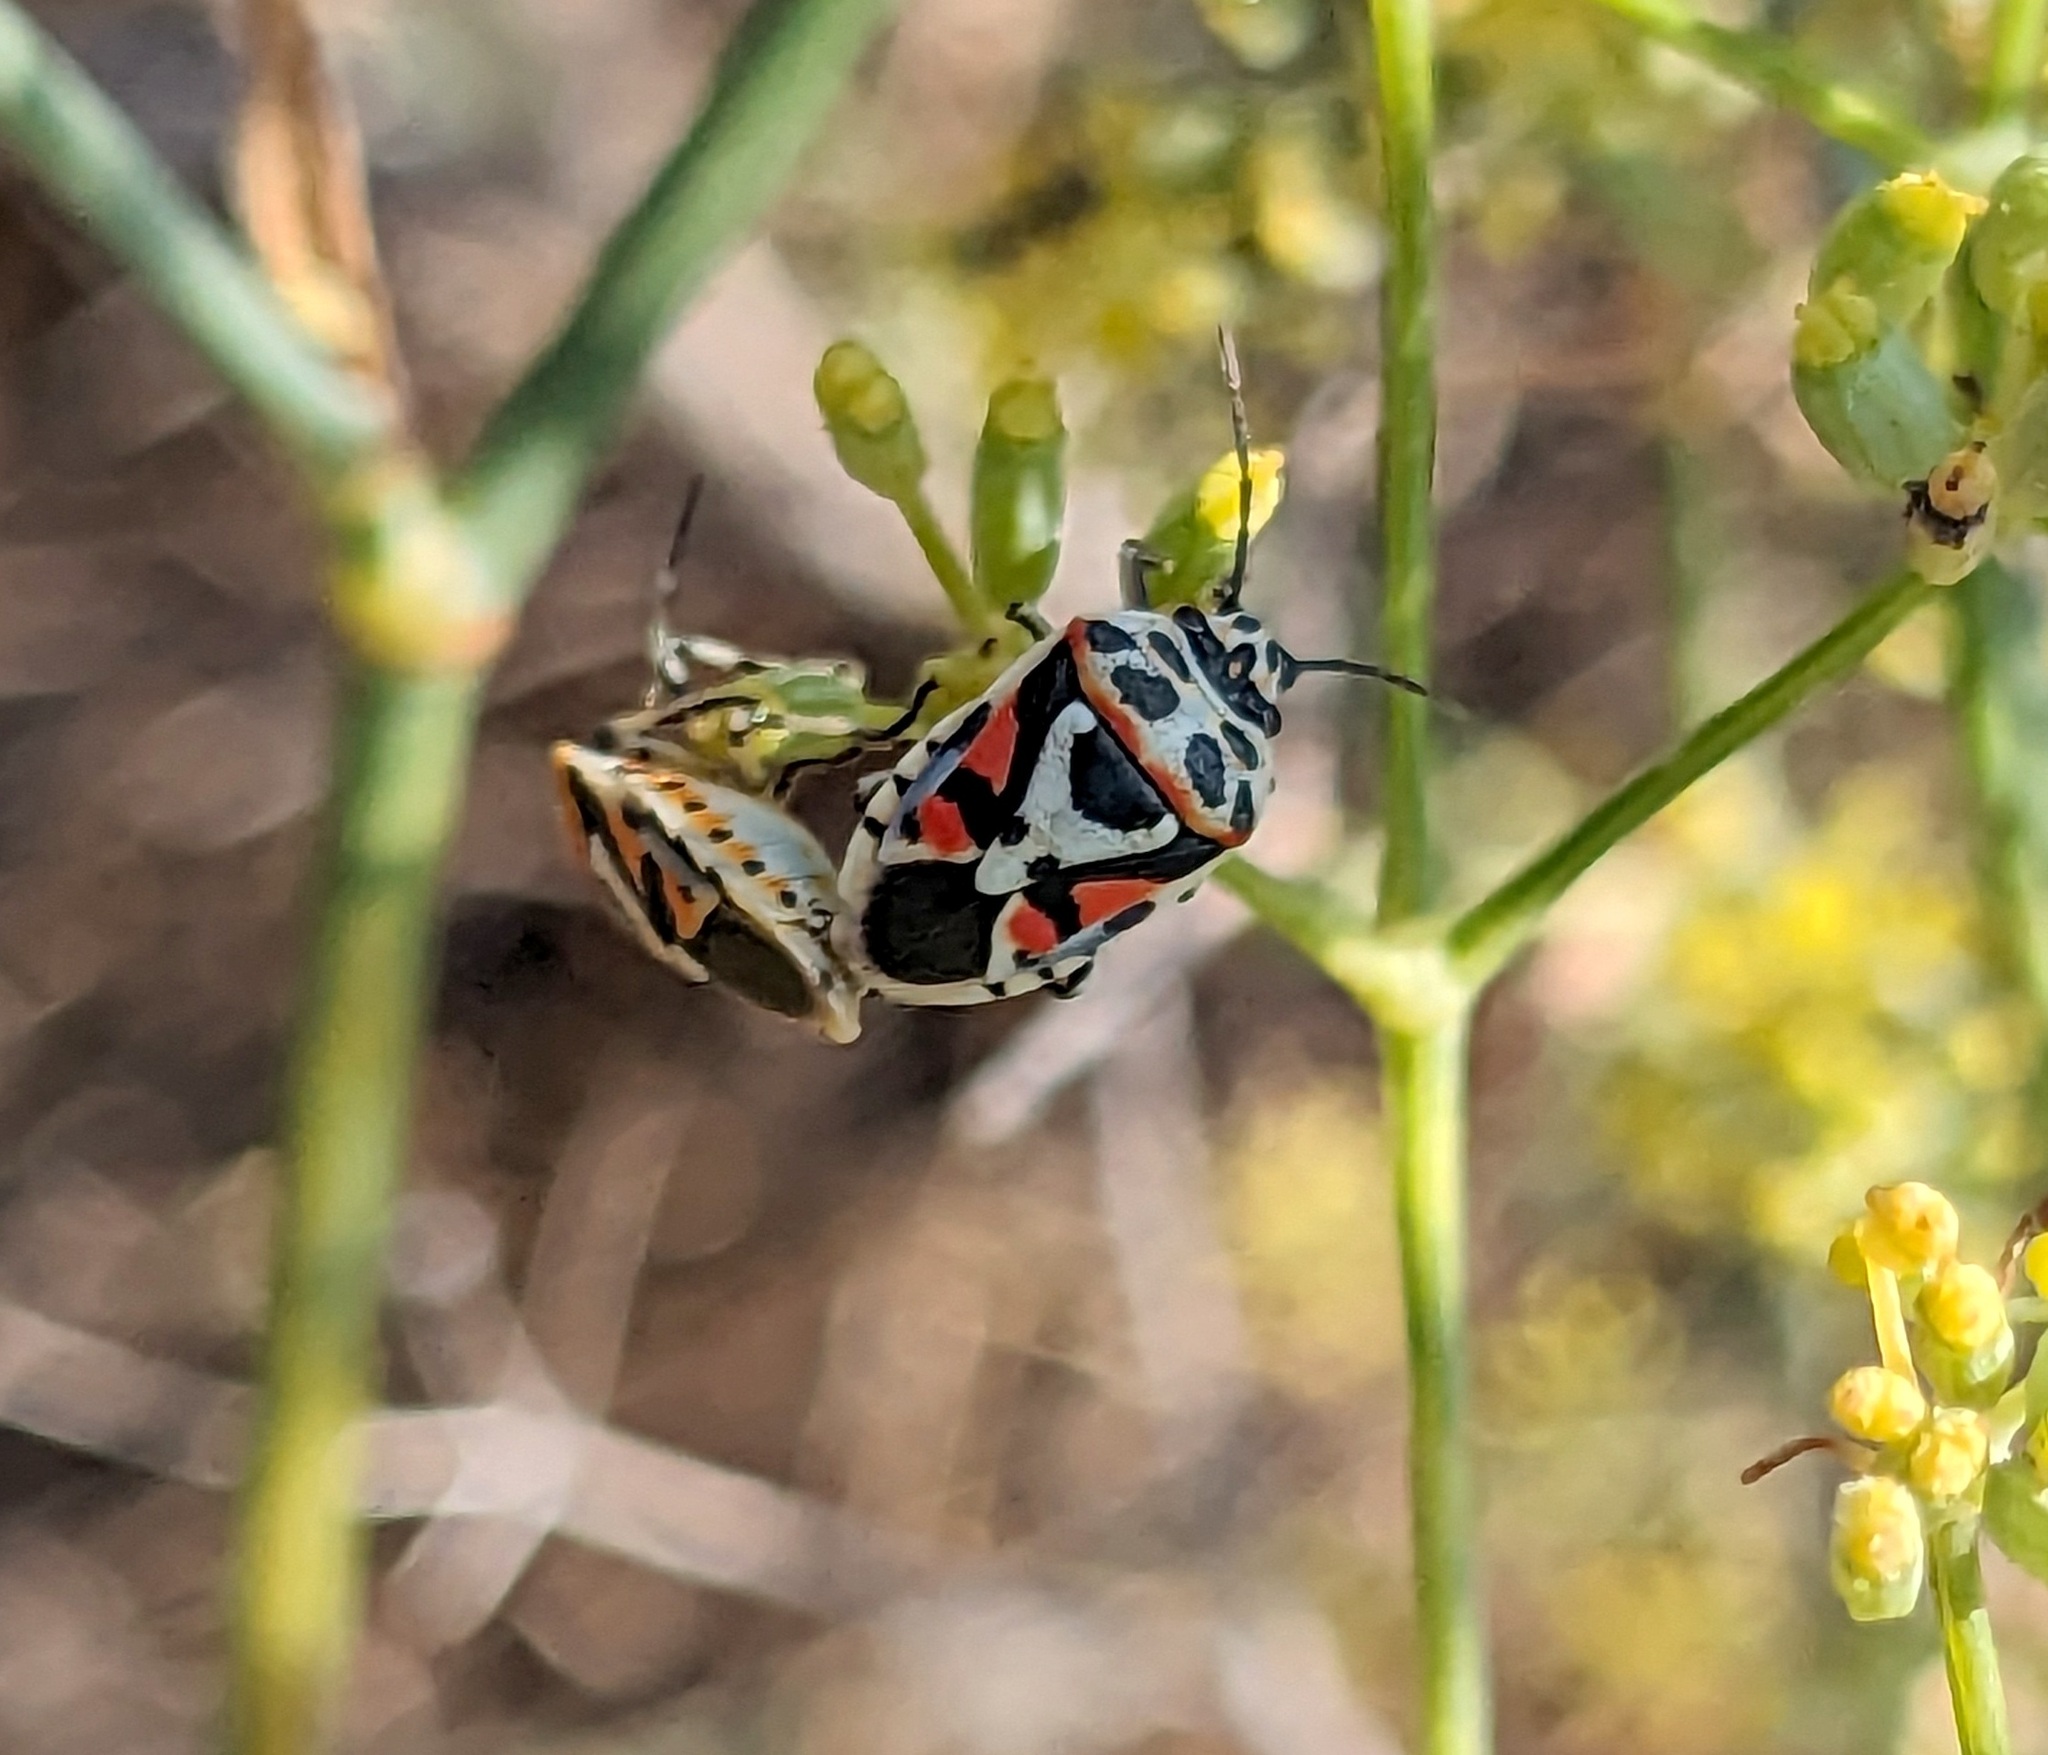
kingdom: Animalia
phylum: Arthropoda
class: Insecta
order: Hemiptera
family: Pentatomidae
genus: Eurydema
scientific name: Eurydema ornata
